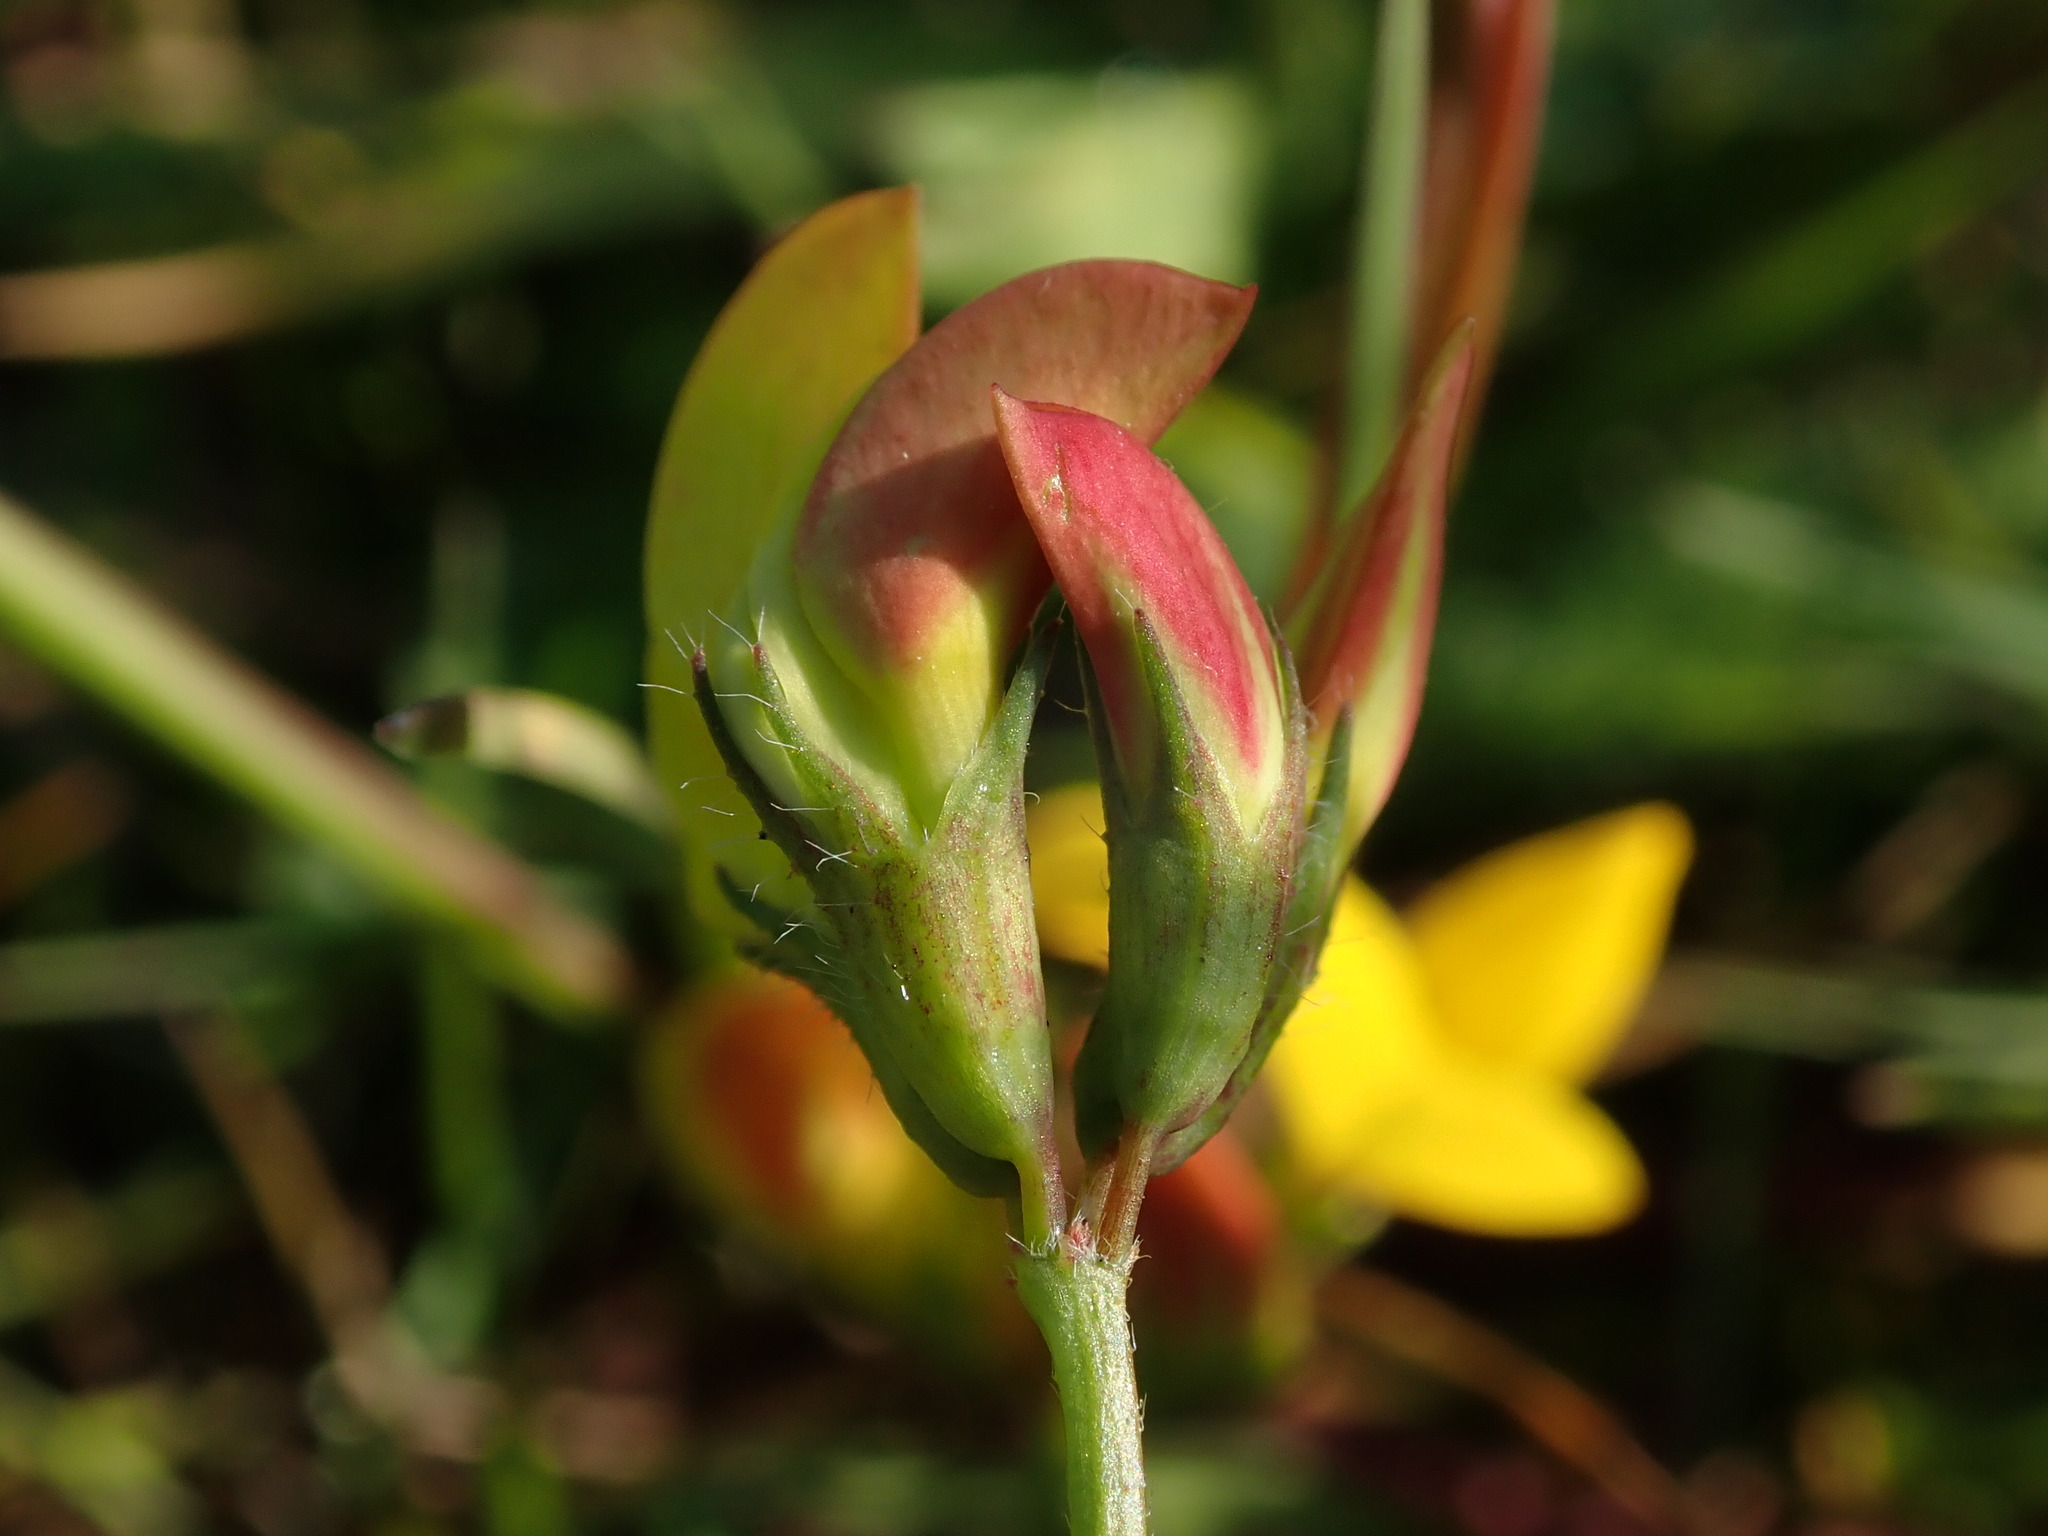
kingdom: Plantae
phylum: Tracheophyta
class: Magnoliopsida
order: Fabales
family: Fabaceae
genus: Lotus
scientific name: Lotus corniculatus
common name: Common bird's-foot-trefoil
